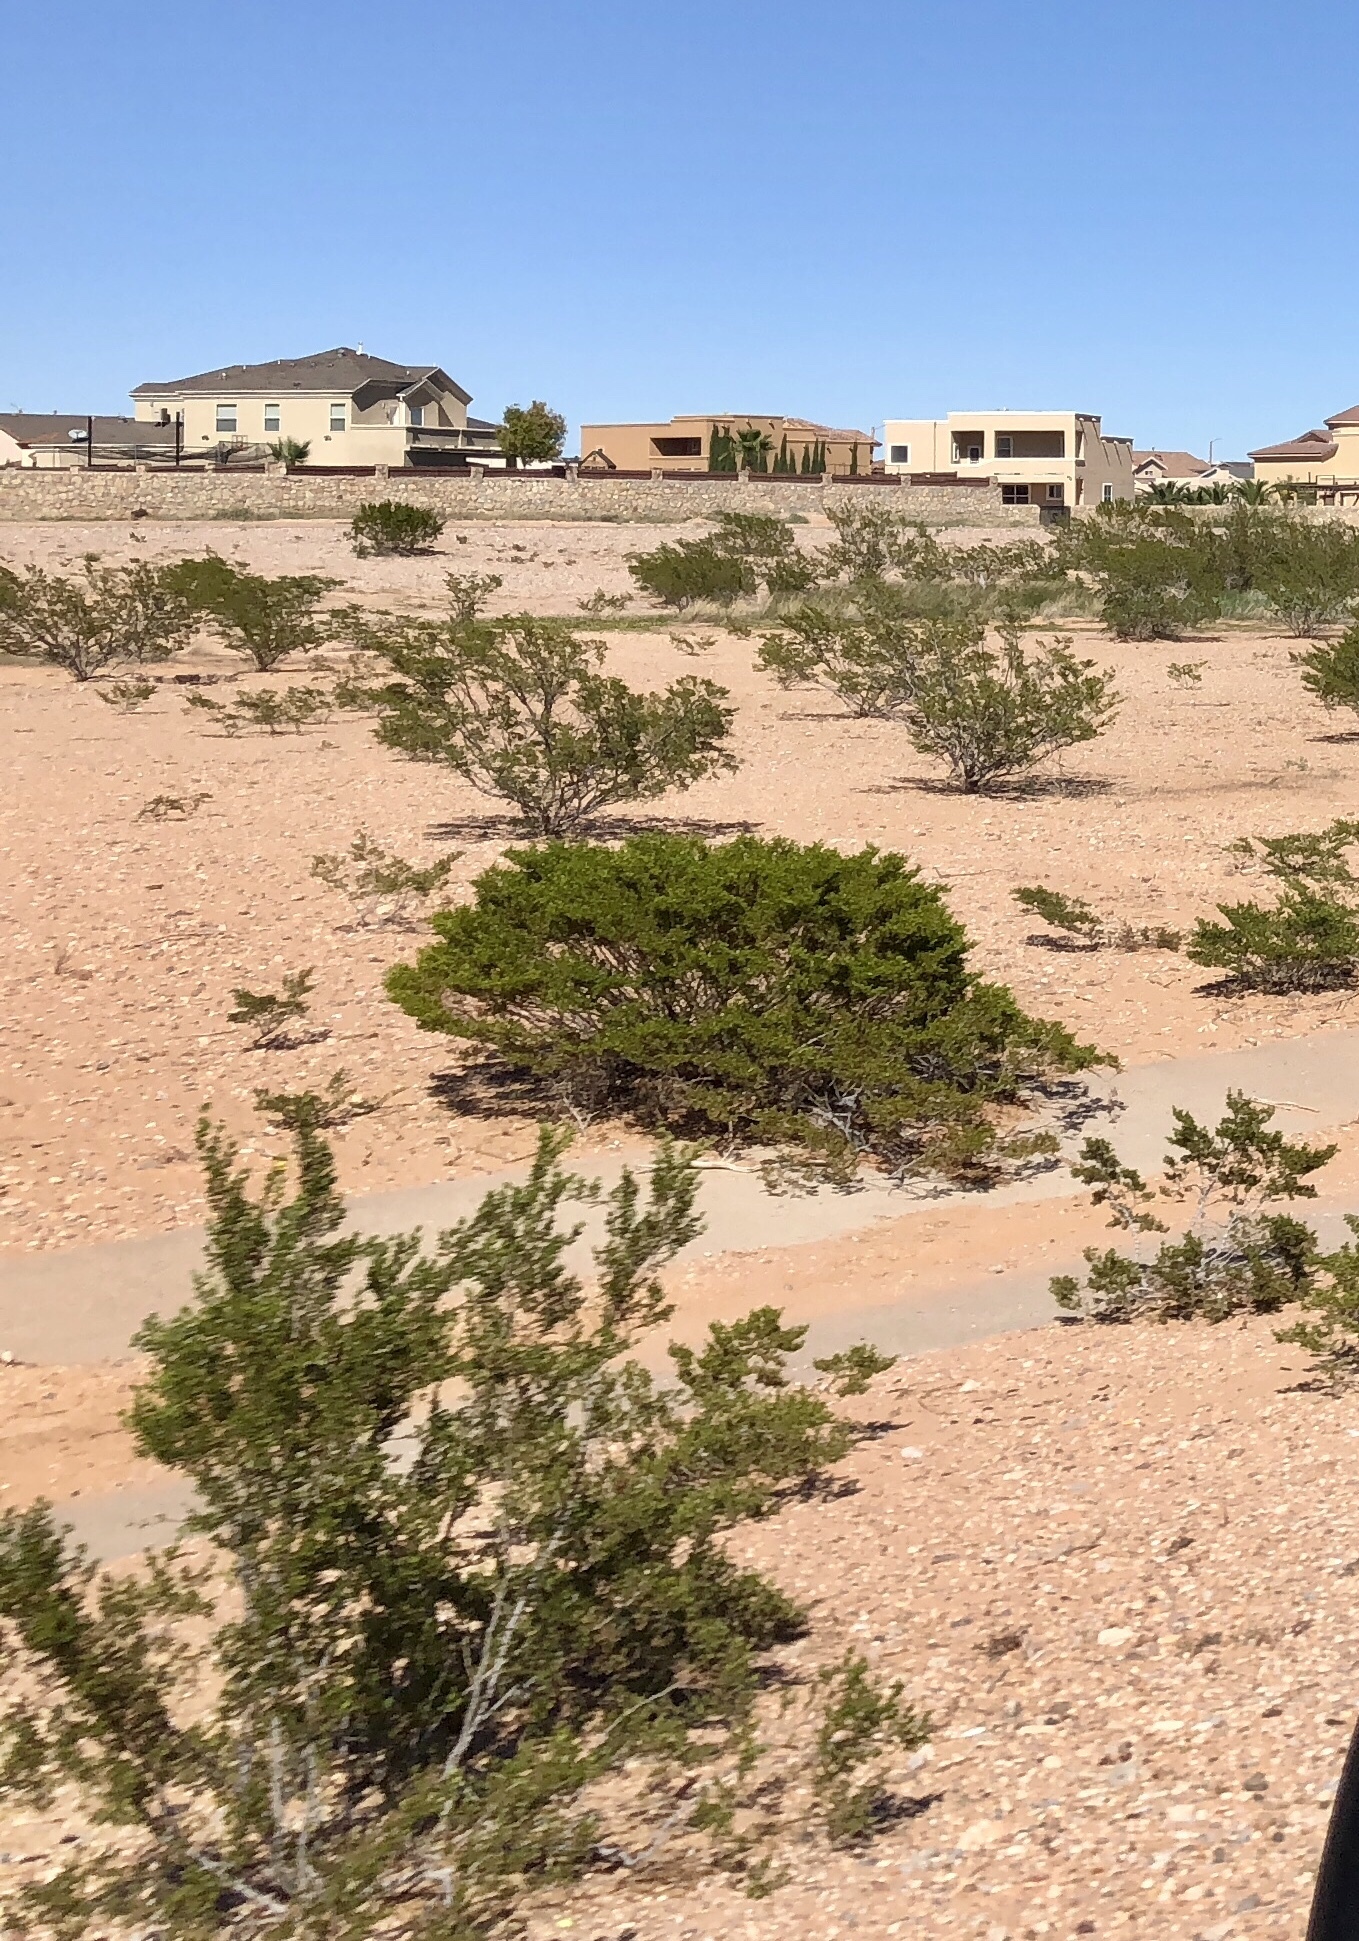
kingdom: Plantae
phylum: Tracheophyta
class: Magnoliopsida
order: Zygophyllales
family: Zygophyllaceae
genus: Larrea
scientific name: Larrea tridentata
